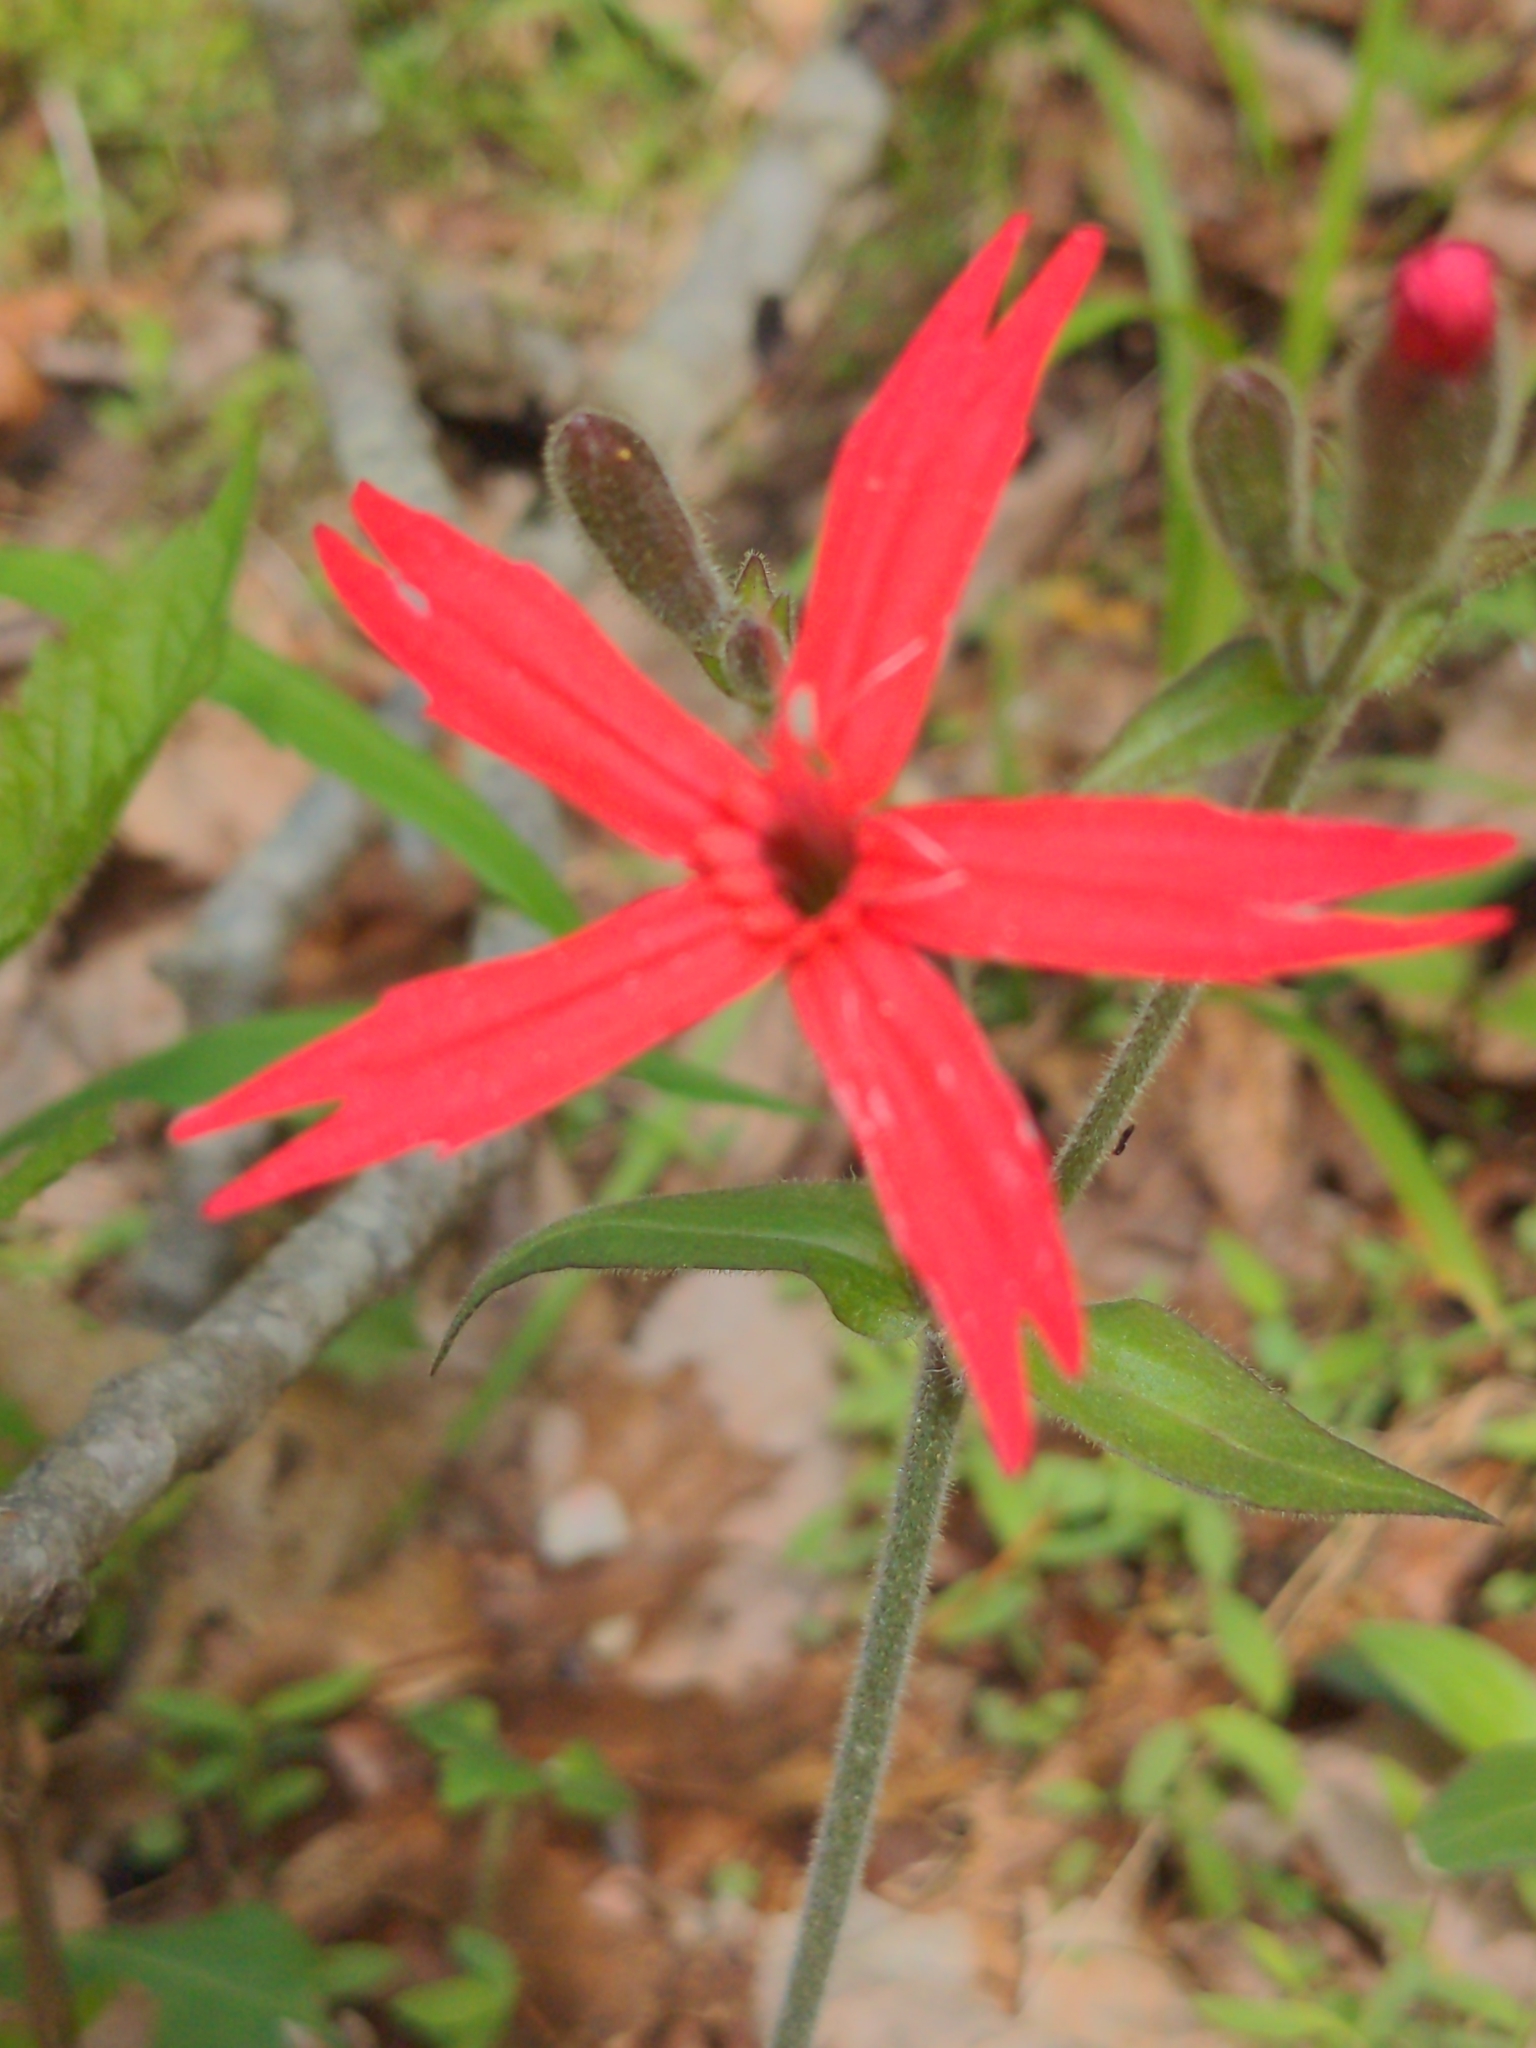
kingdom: Plantae
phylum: Tracheophyta
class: Magnoliopsida
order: Caryophyllales
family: Caryophyllaceae
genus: Silene
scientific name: Silene virginica
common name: Fire-pink
